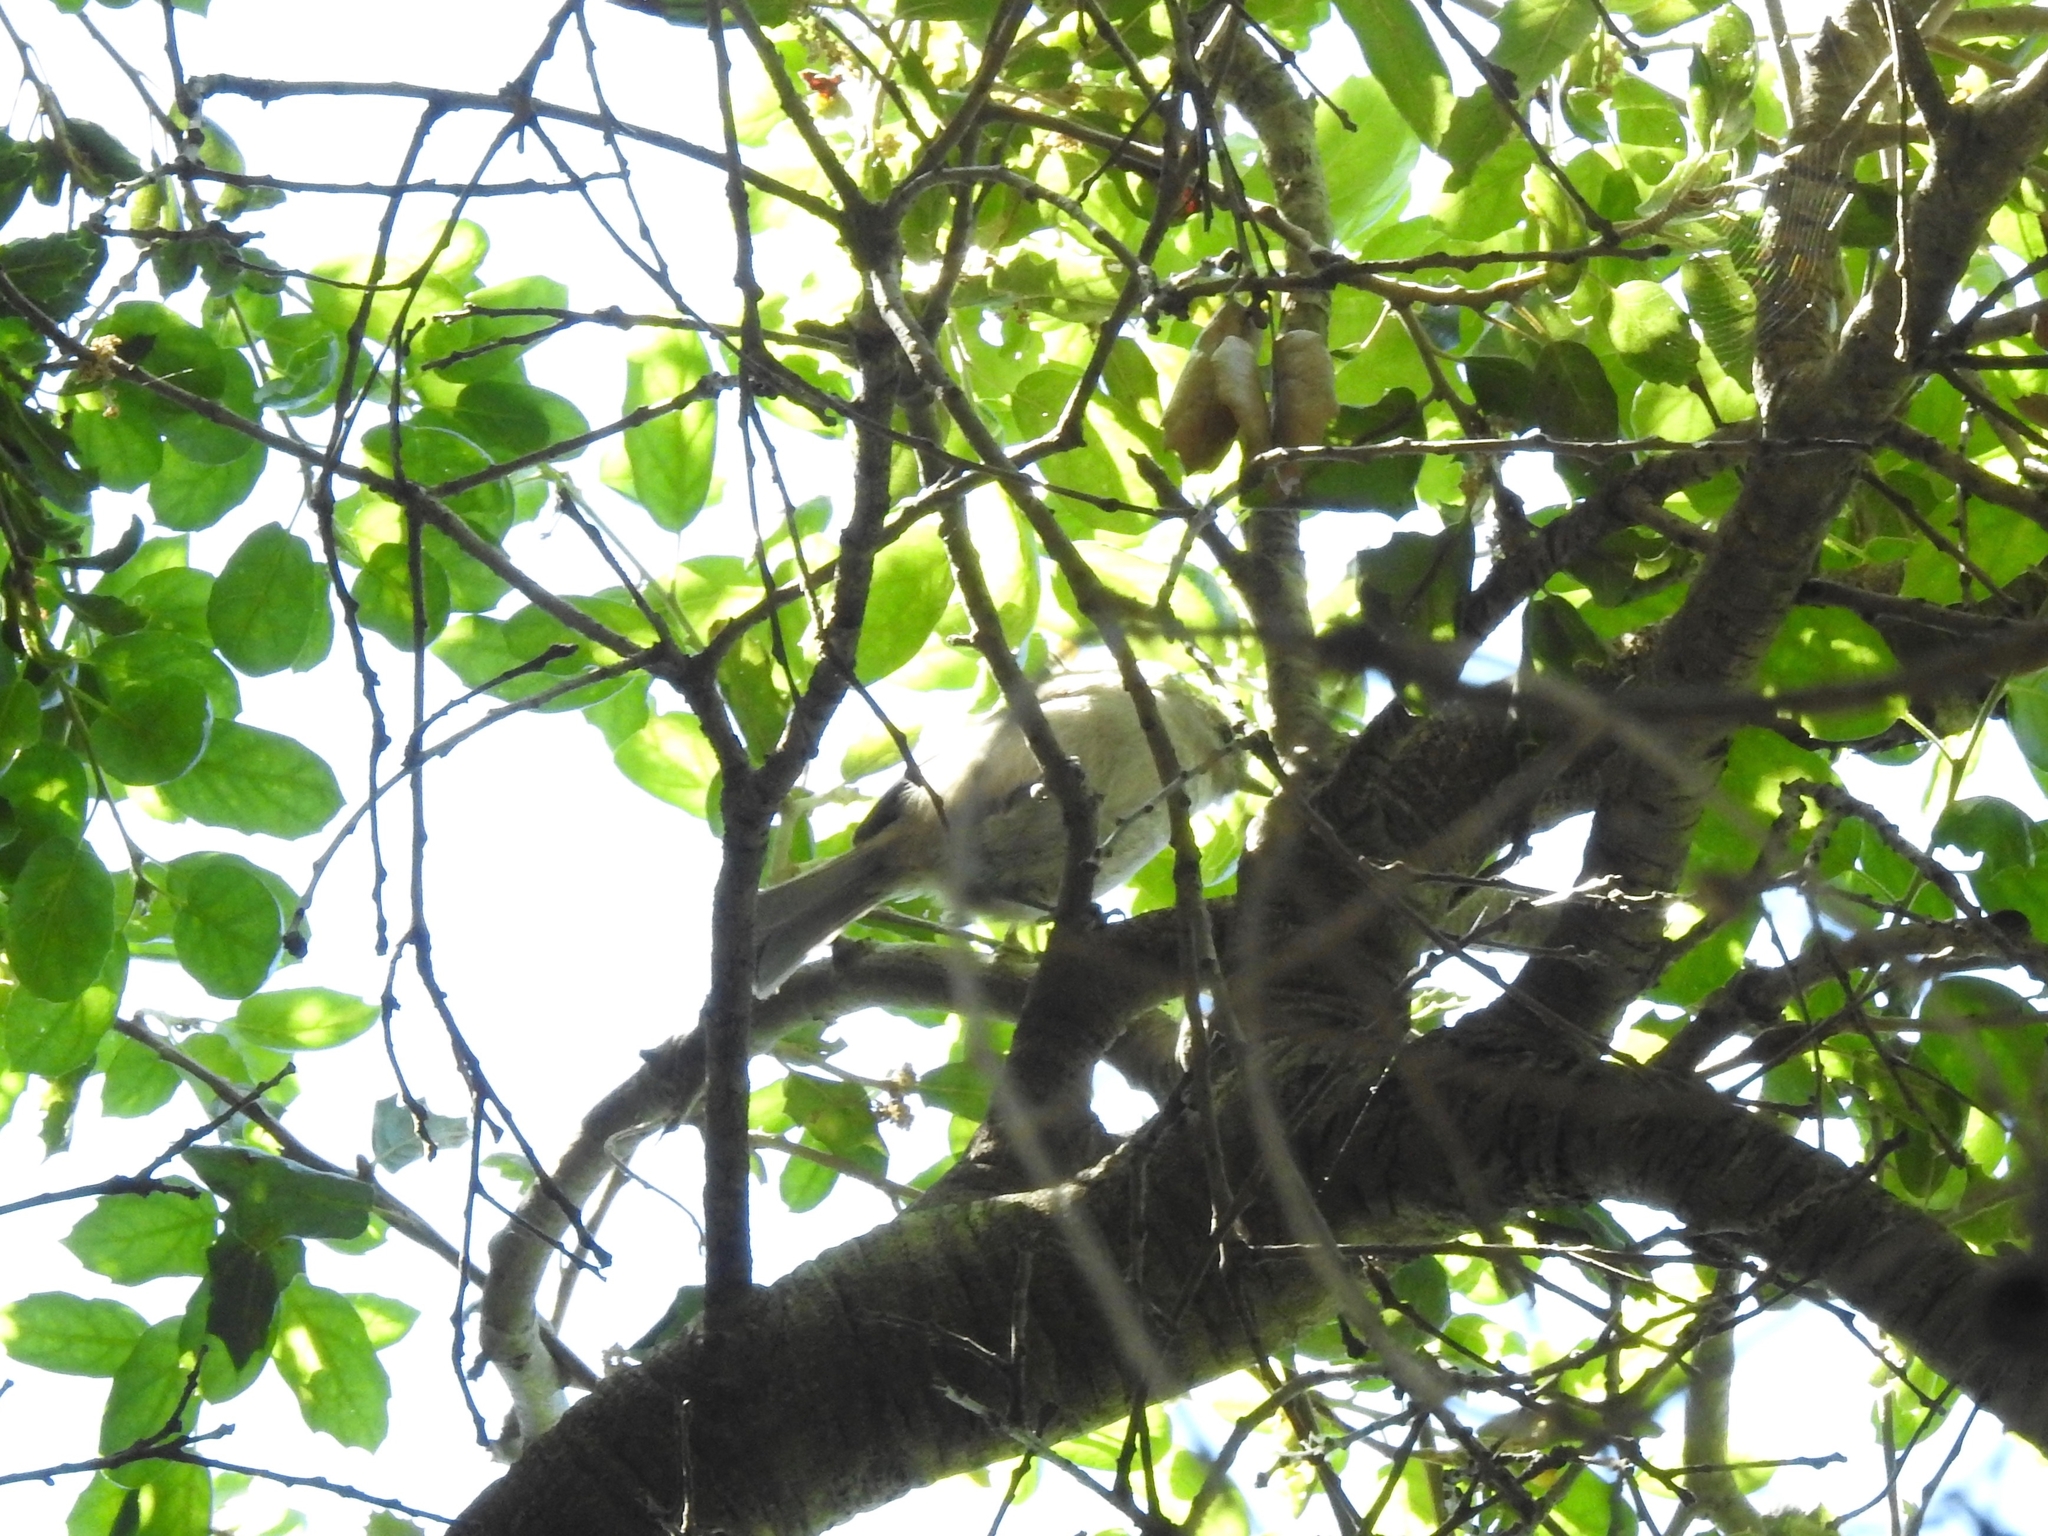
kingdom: Animalia
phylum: Chordata
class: Aves
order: Passeriformes
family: Paridae
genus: Baeolophus
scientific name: Baeolophus inornatus
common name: Oak titmouse
